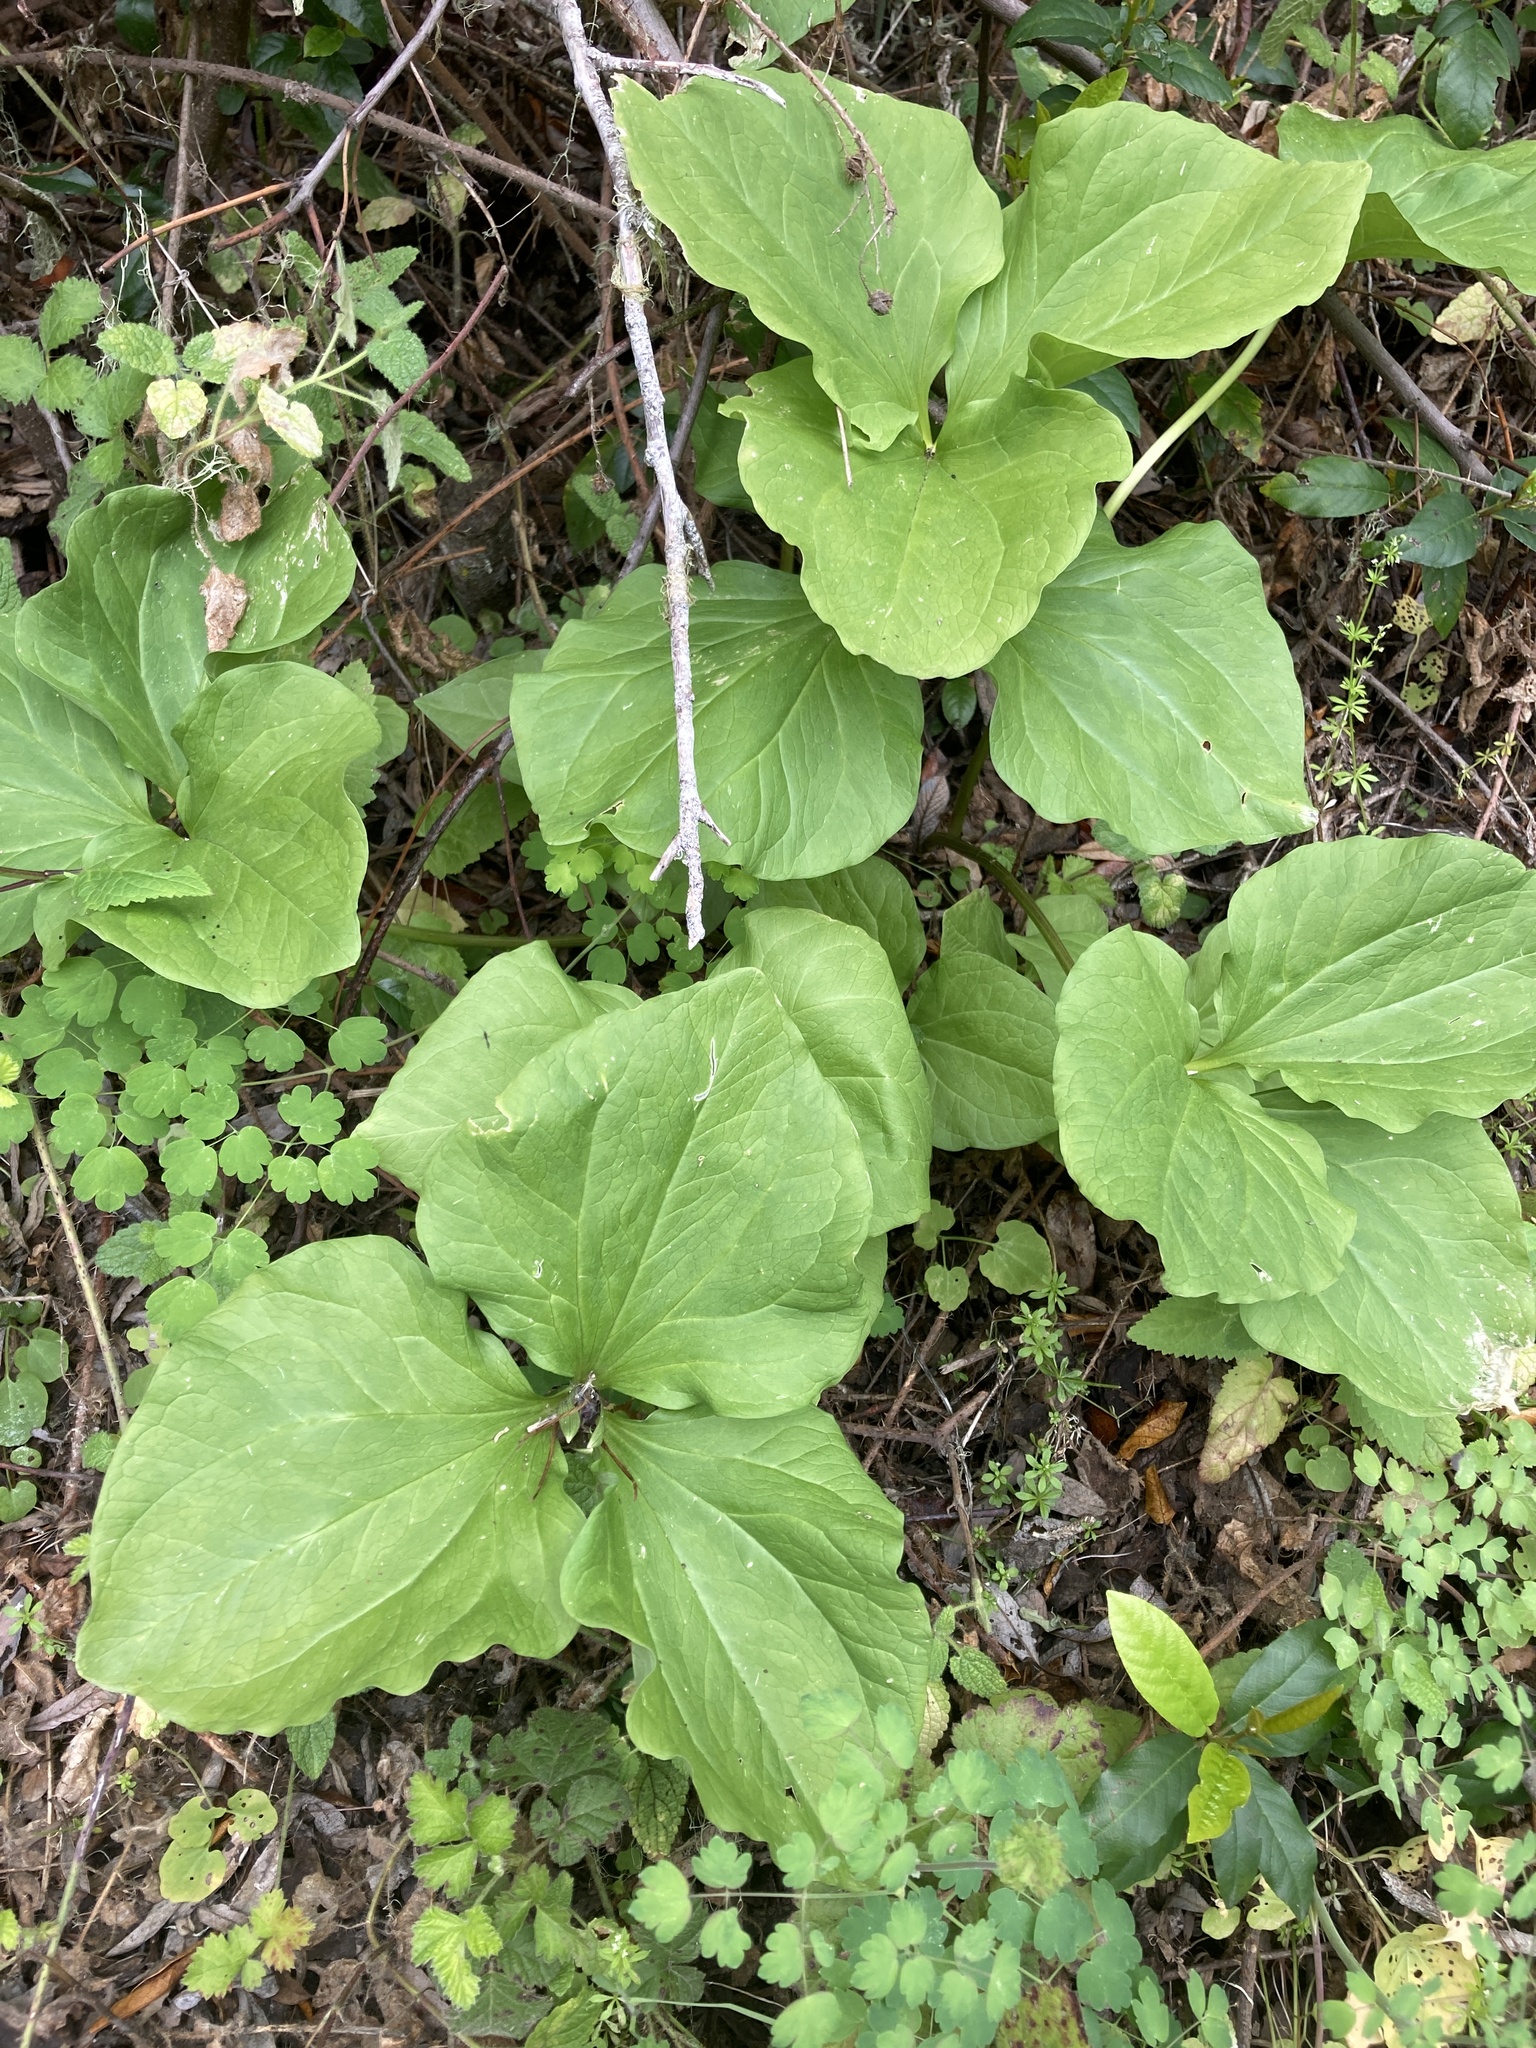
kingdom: Plantae
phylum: Tracheophyta
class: Liliopsida
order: Liliales
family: Melanthiaceae
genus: Trillium
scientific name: Trillium angustipetalum
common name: Narrow-petaled trillium
